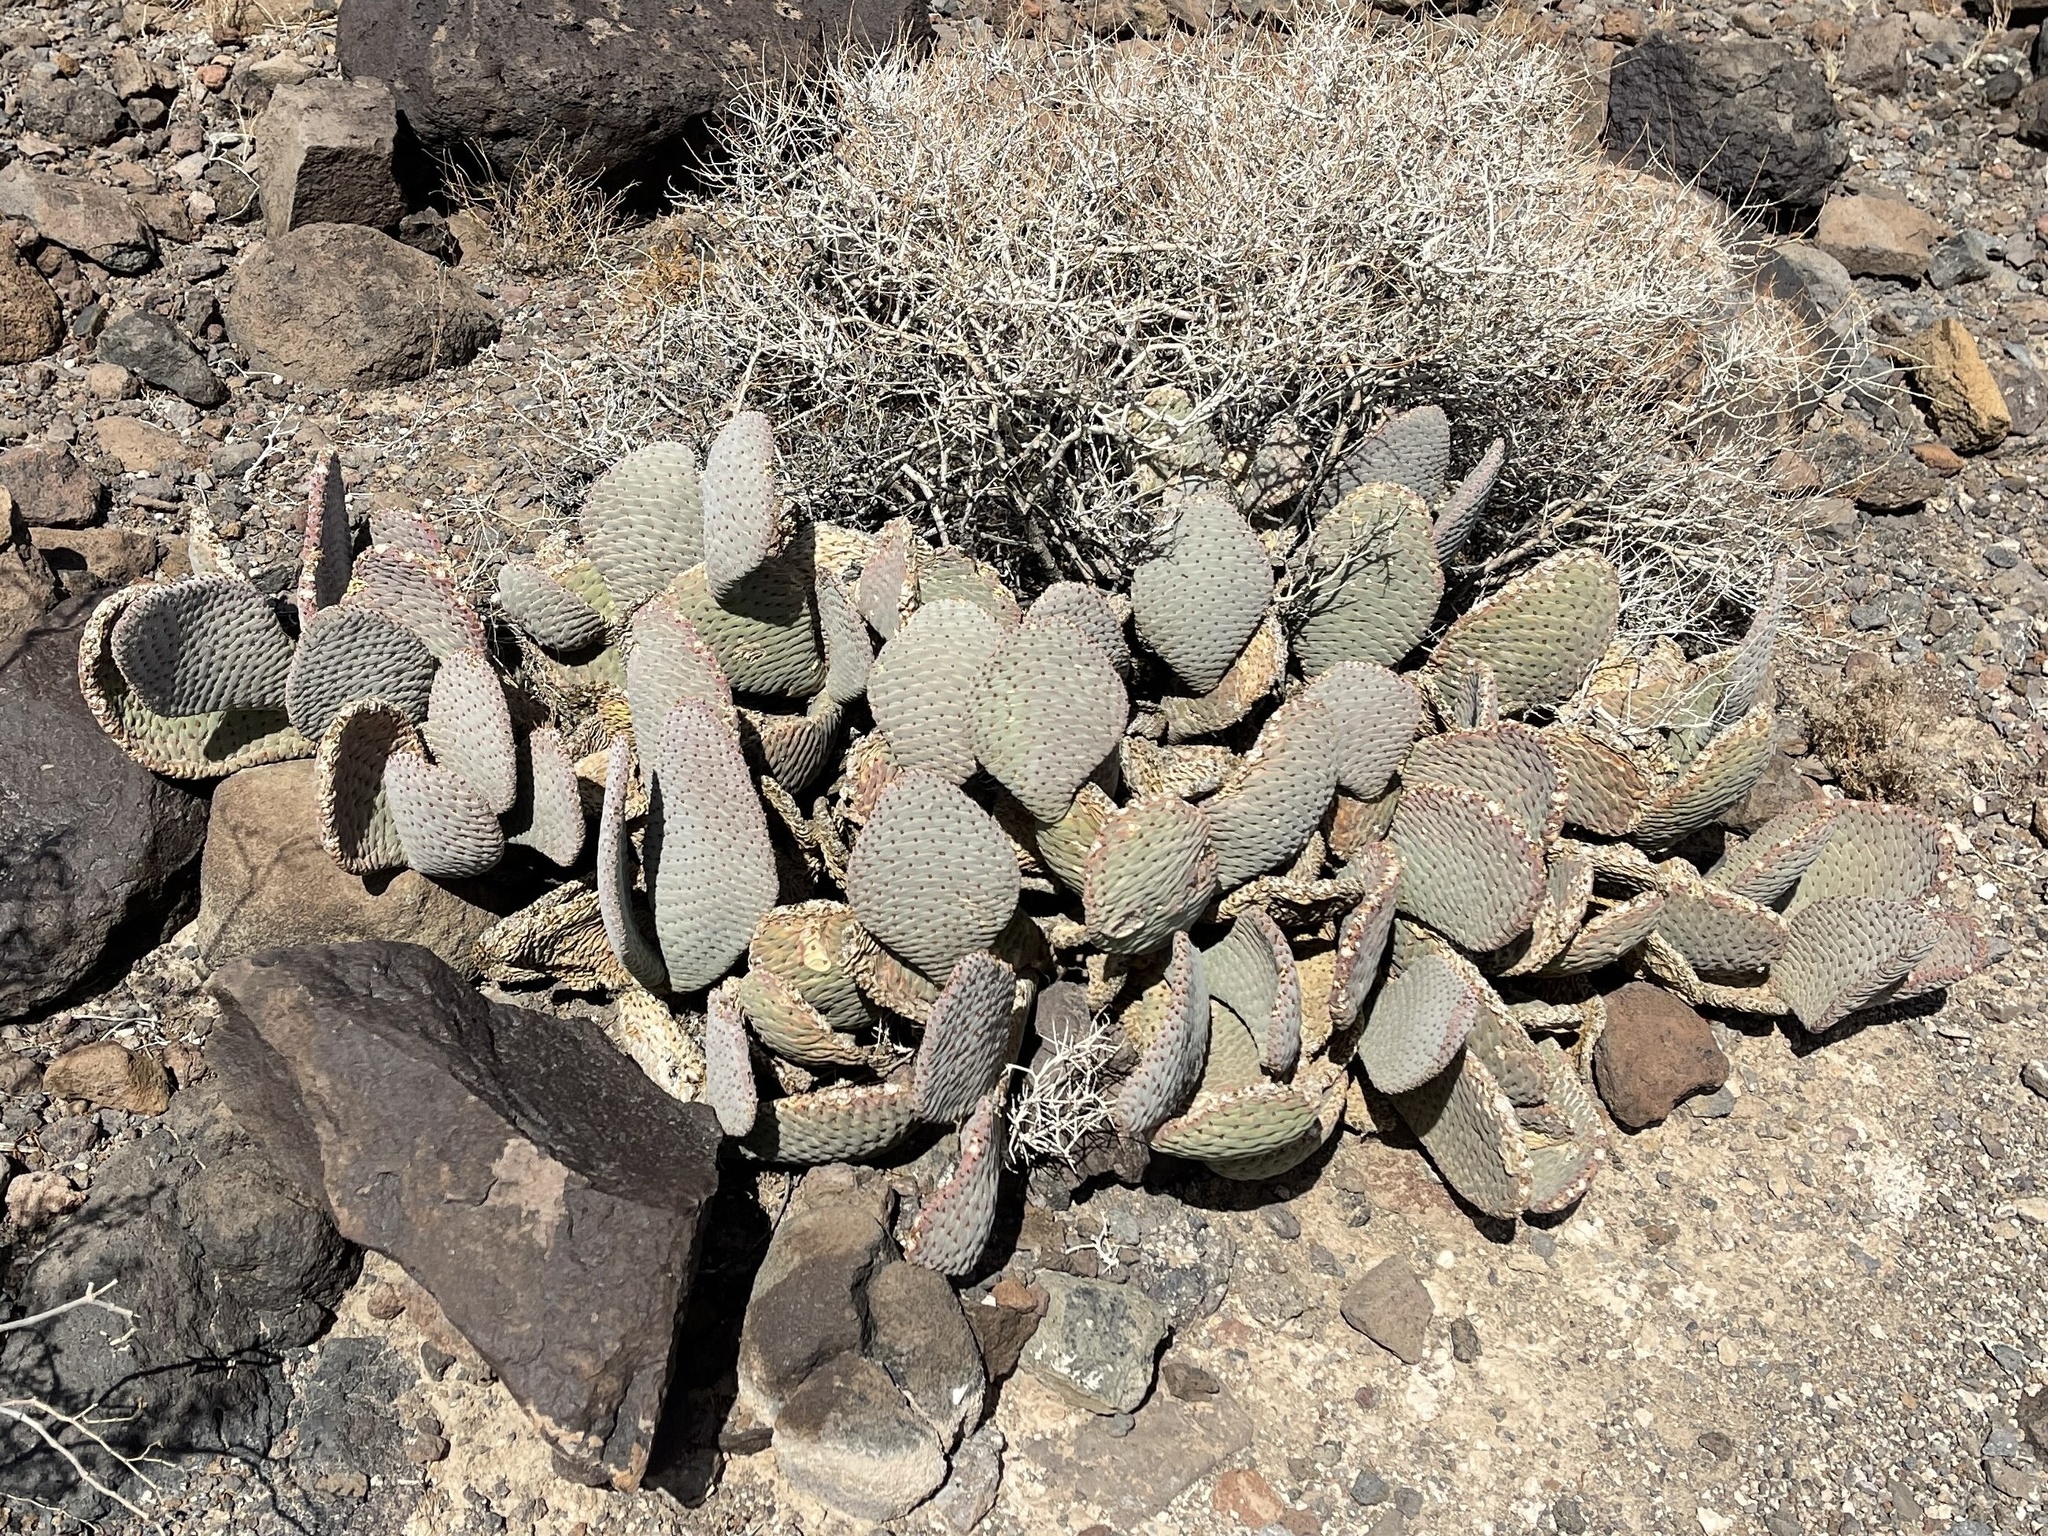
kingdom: Plantae
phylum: Tracheophyta
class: Magnoliopsida
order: Caryophyllales
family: Cactaceae
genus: Opuntia
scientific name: Opuntia basilaris
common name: Beavertail prickly-pear
